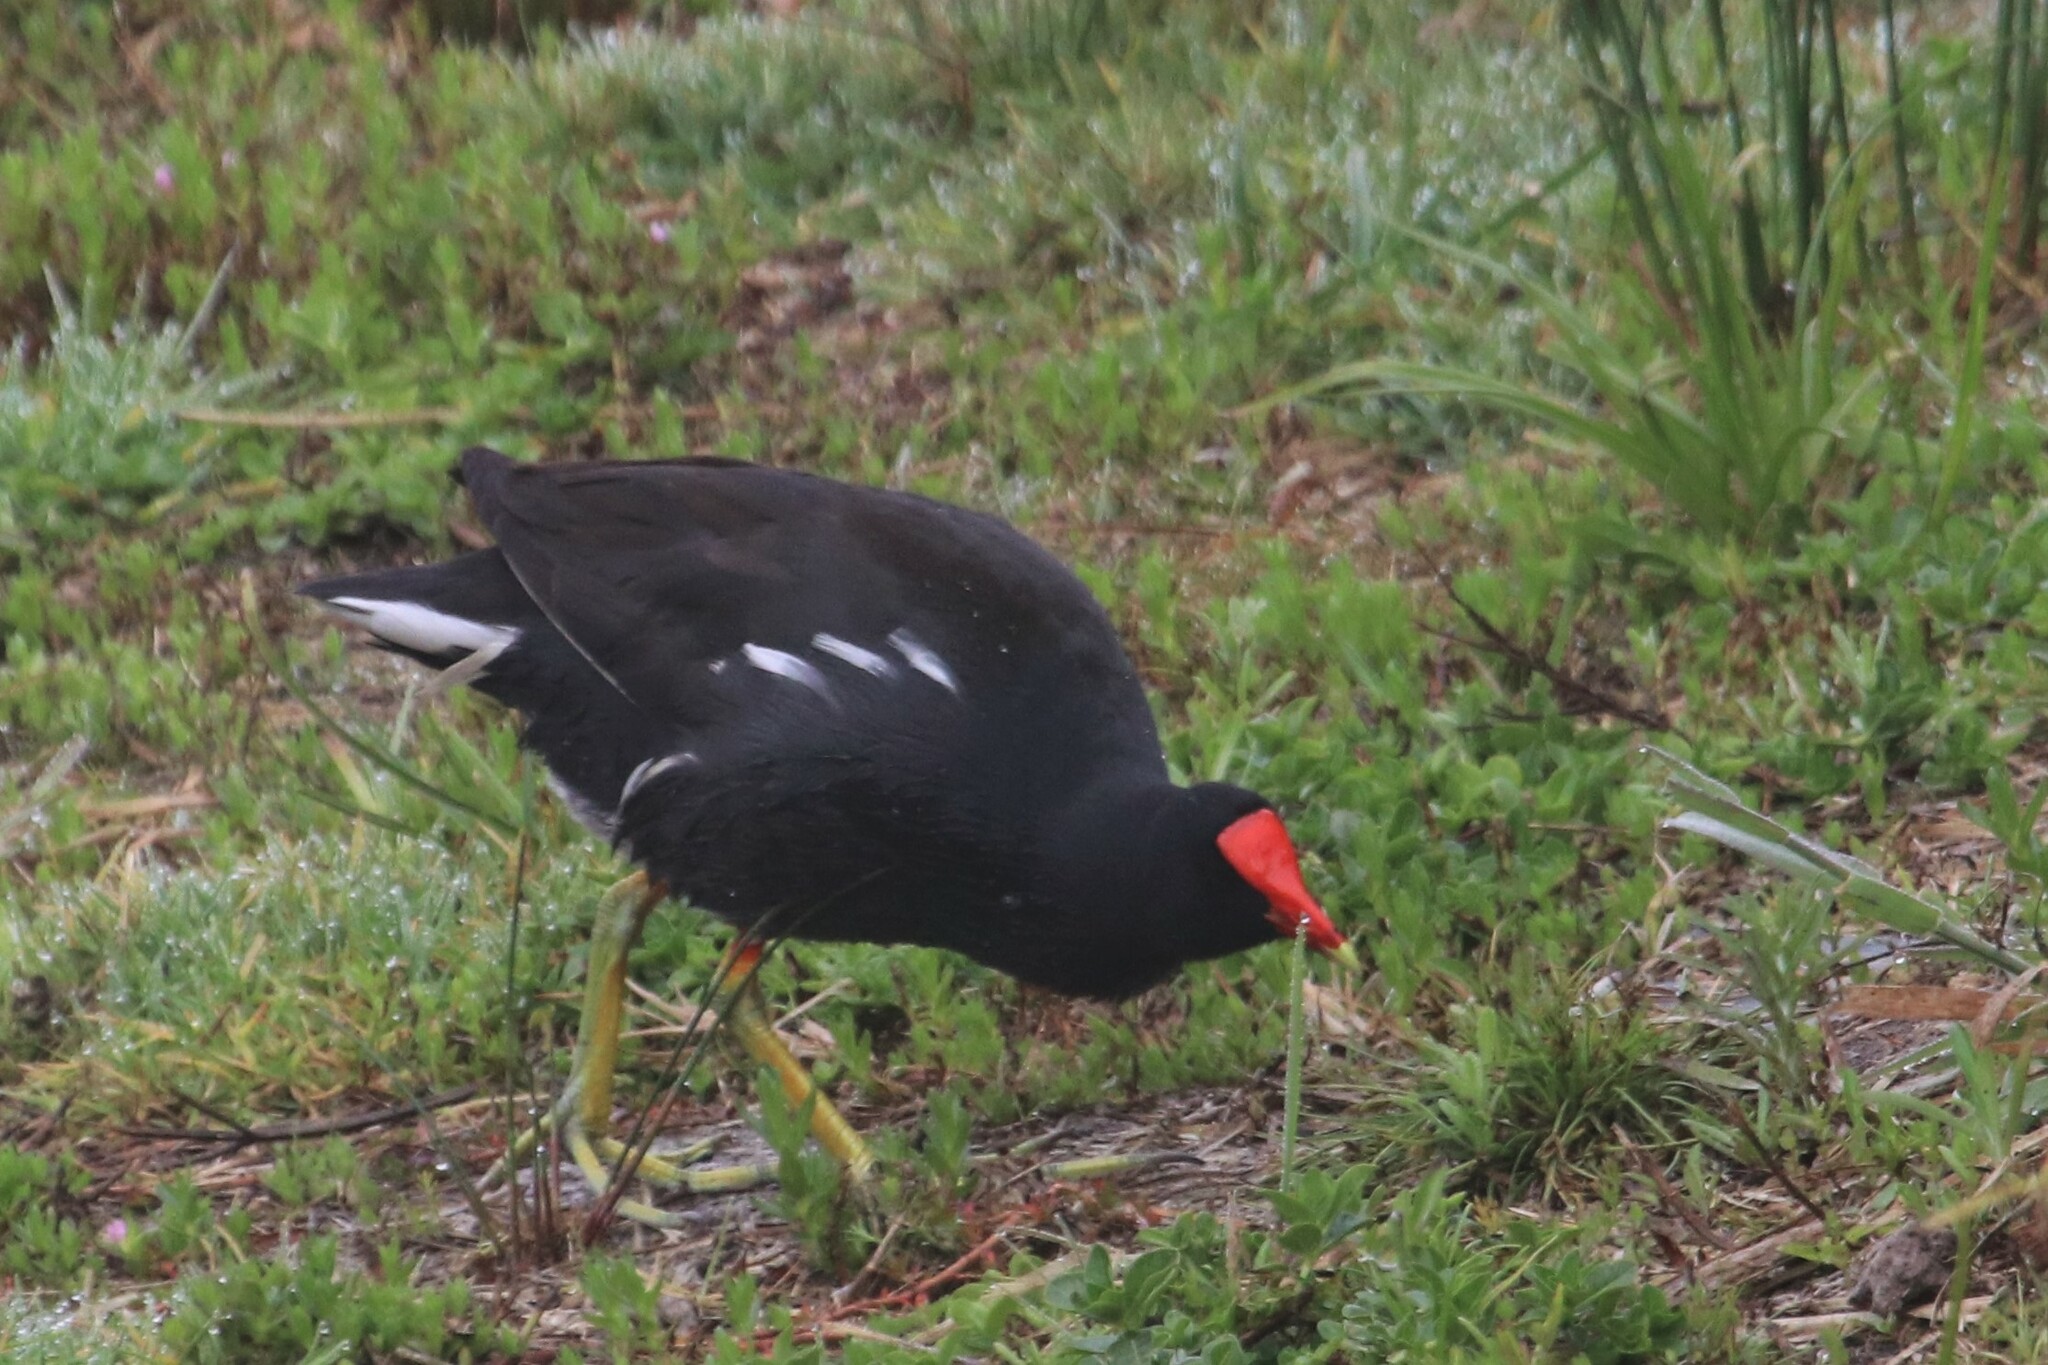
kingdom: Animalia
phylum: Chordata
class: Aves
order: Gruiformes
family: Rallidae
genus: Gallinula
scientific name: Gallinula chloropus
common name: Common moorhen
